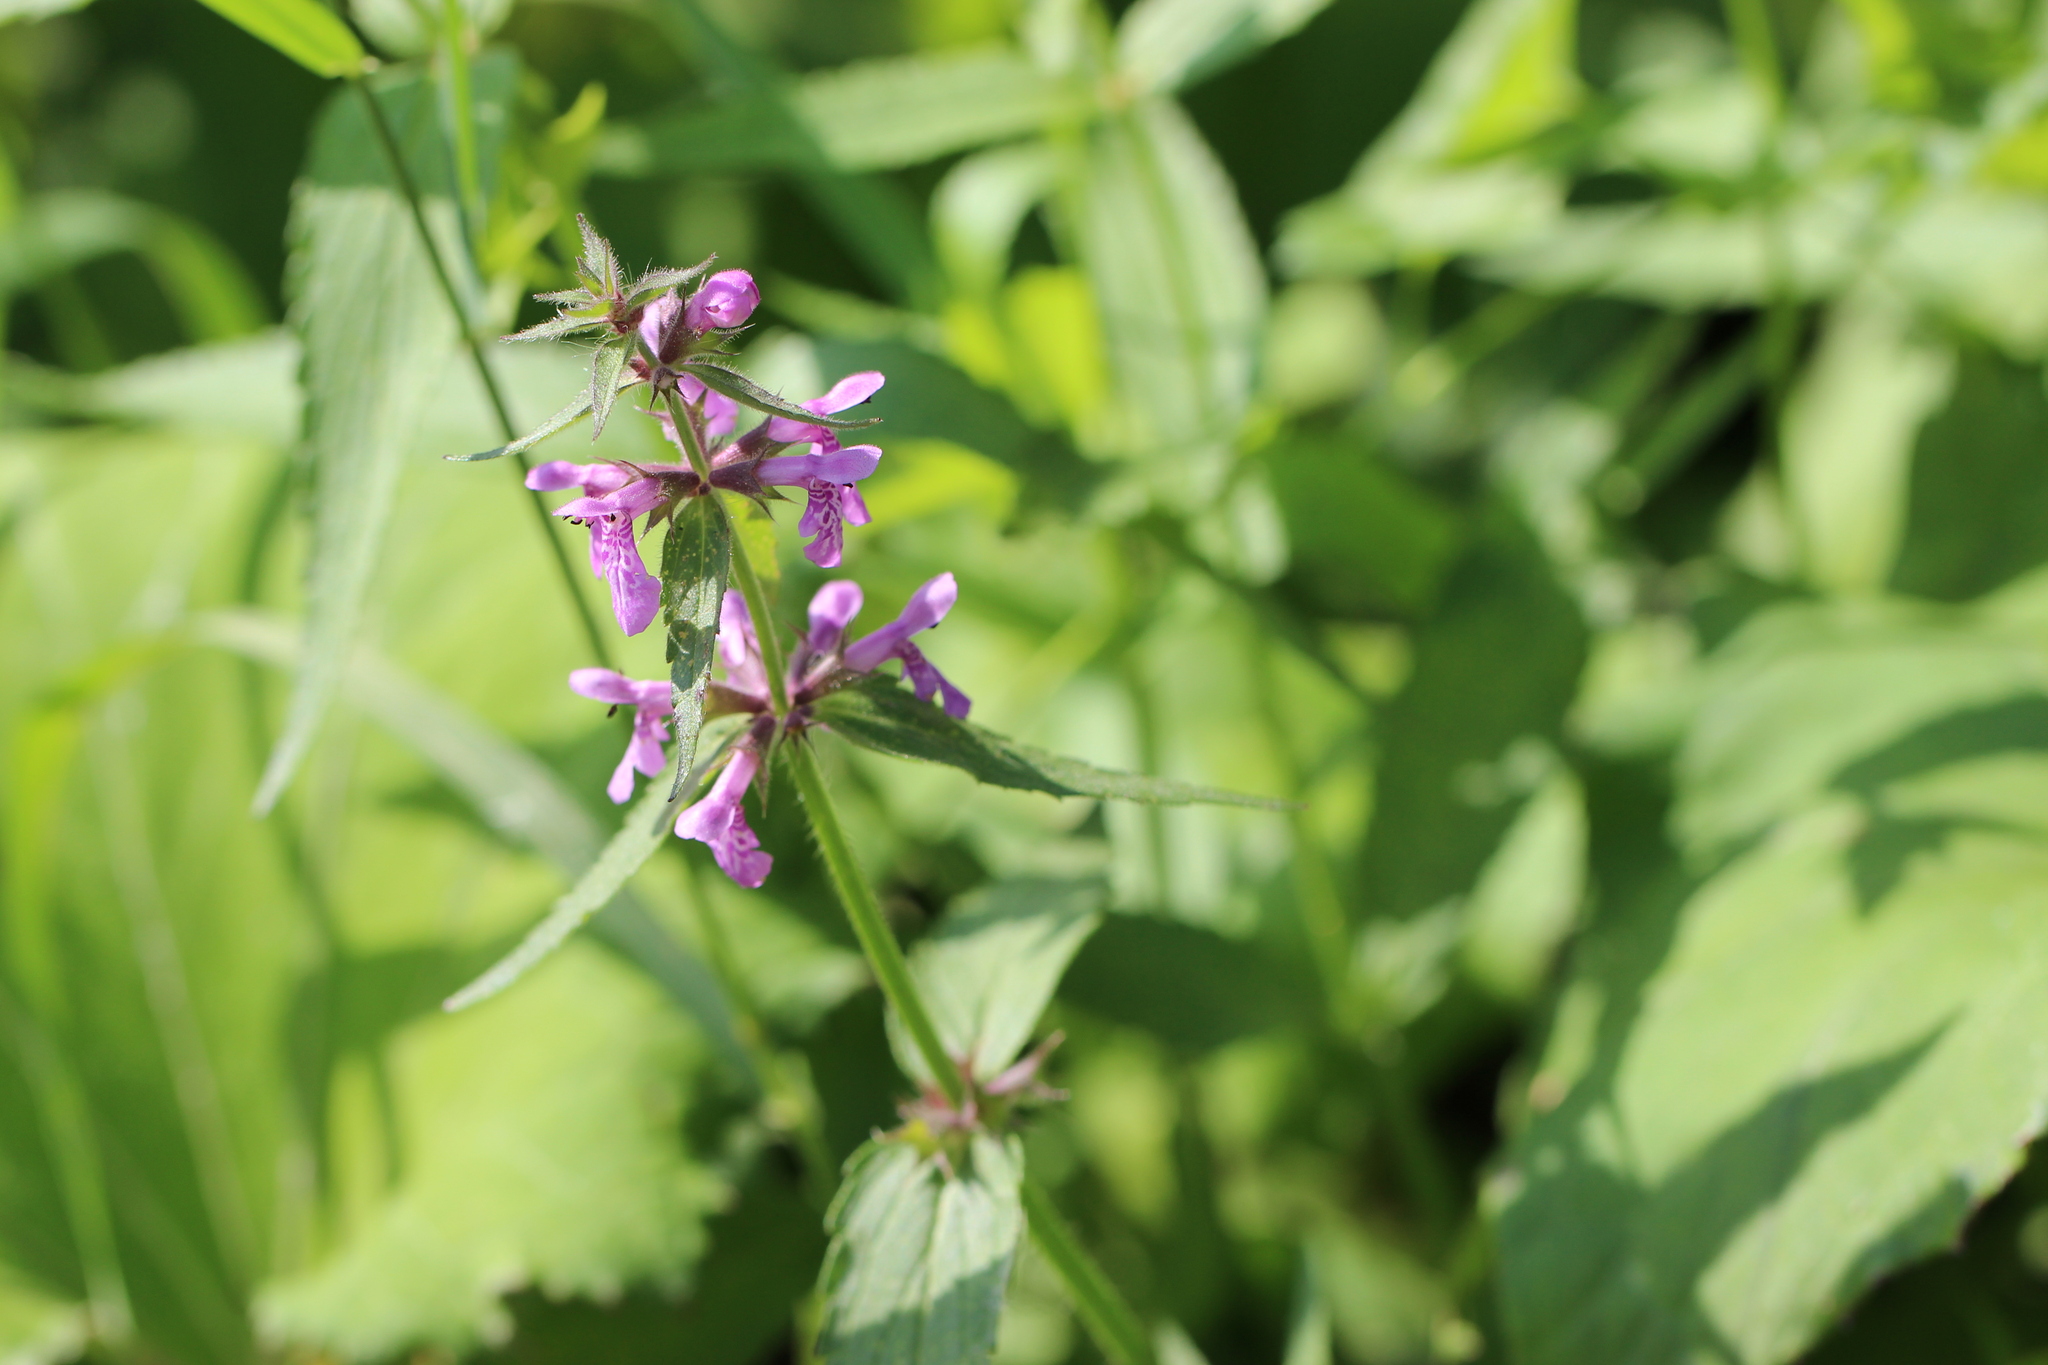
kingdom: Plantae
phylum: Tracheophyta
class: Magnoliopsida
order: Lamiales
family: Lamiaceae
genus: Stachys
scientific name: Stachys palustris
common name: Marsh woundwort
